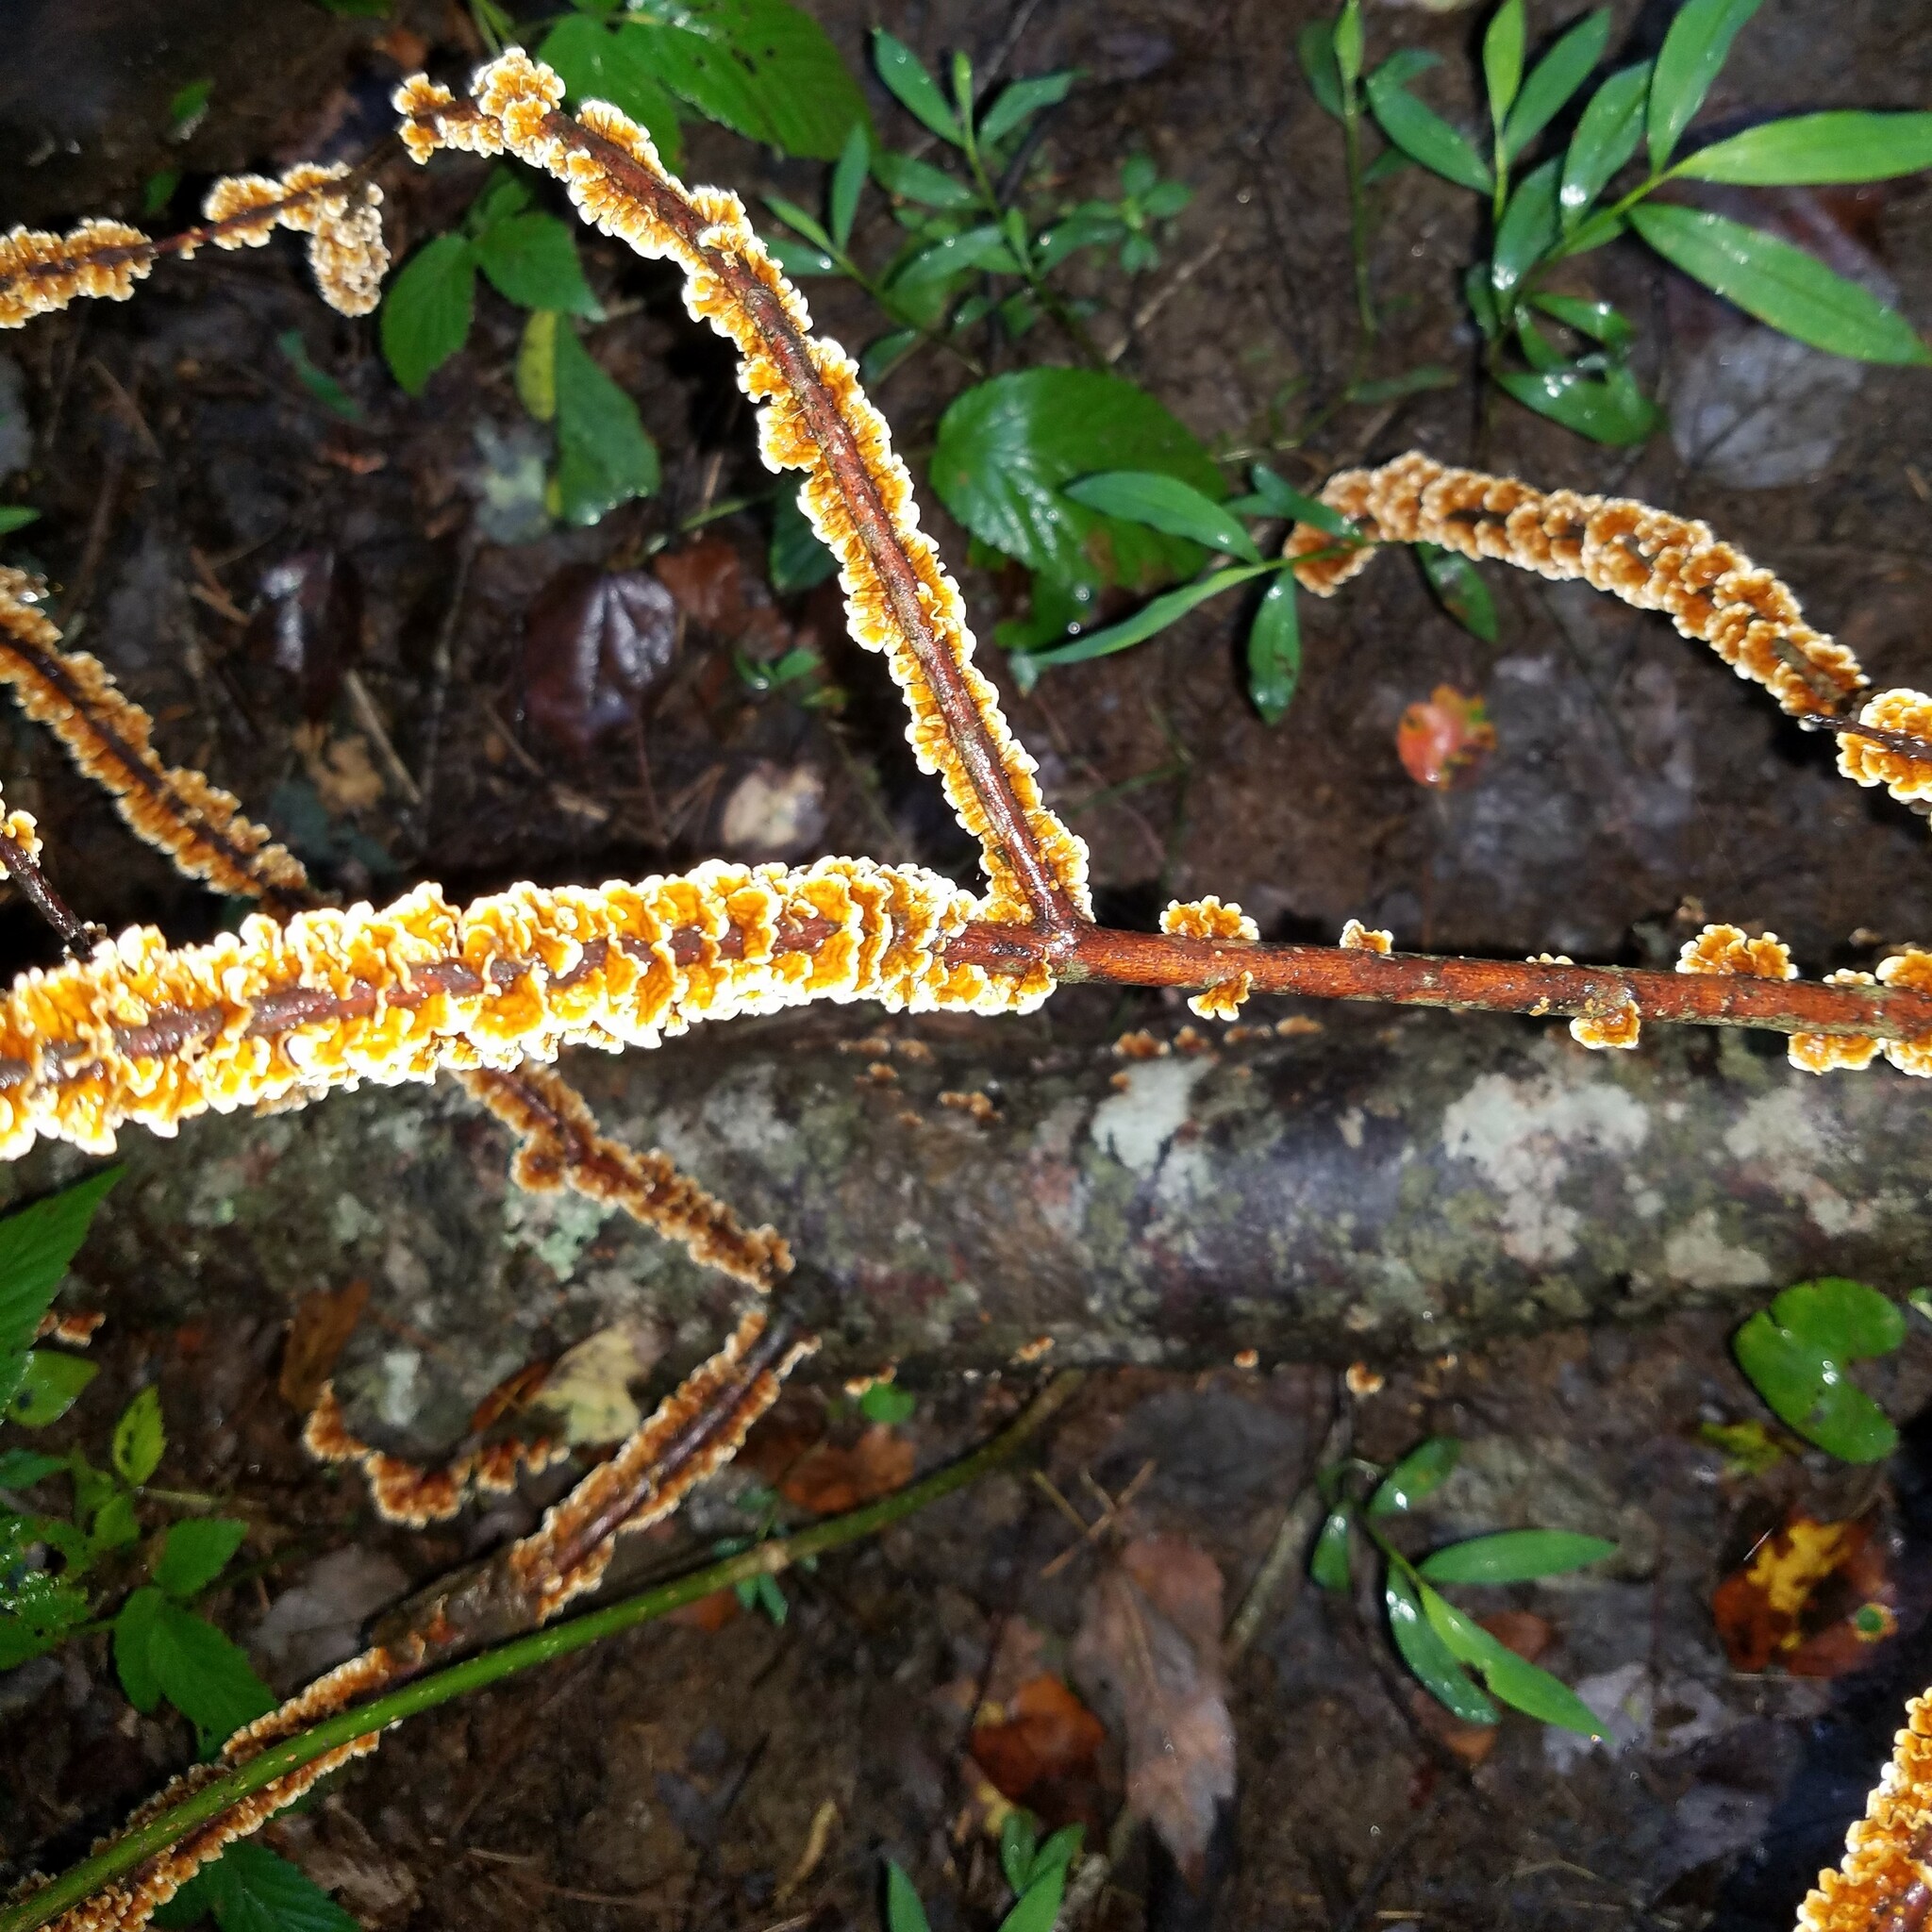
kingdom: Fungi
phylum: Basidiomycota
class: Agaricomycetes
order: Russulales
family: Stereaceae
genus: Stereum
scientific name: Stereum complicatum
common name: Crowded parchment
